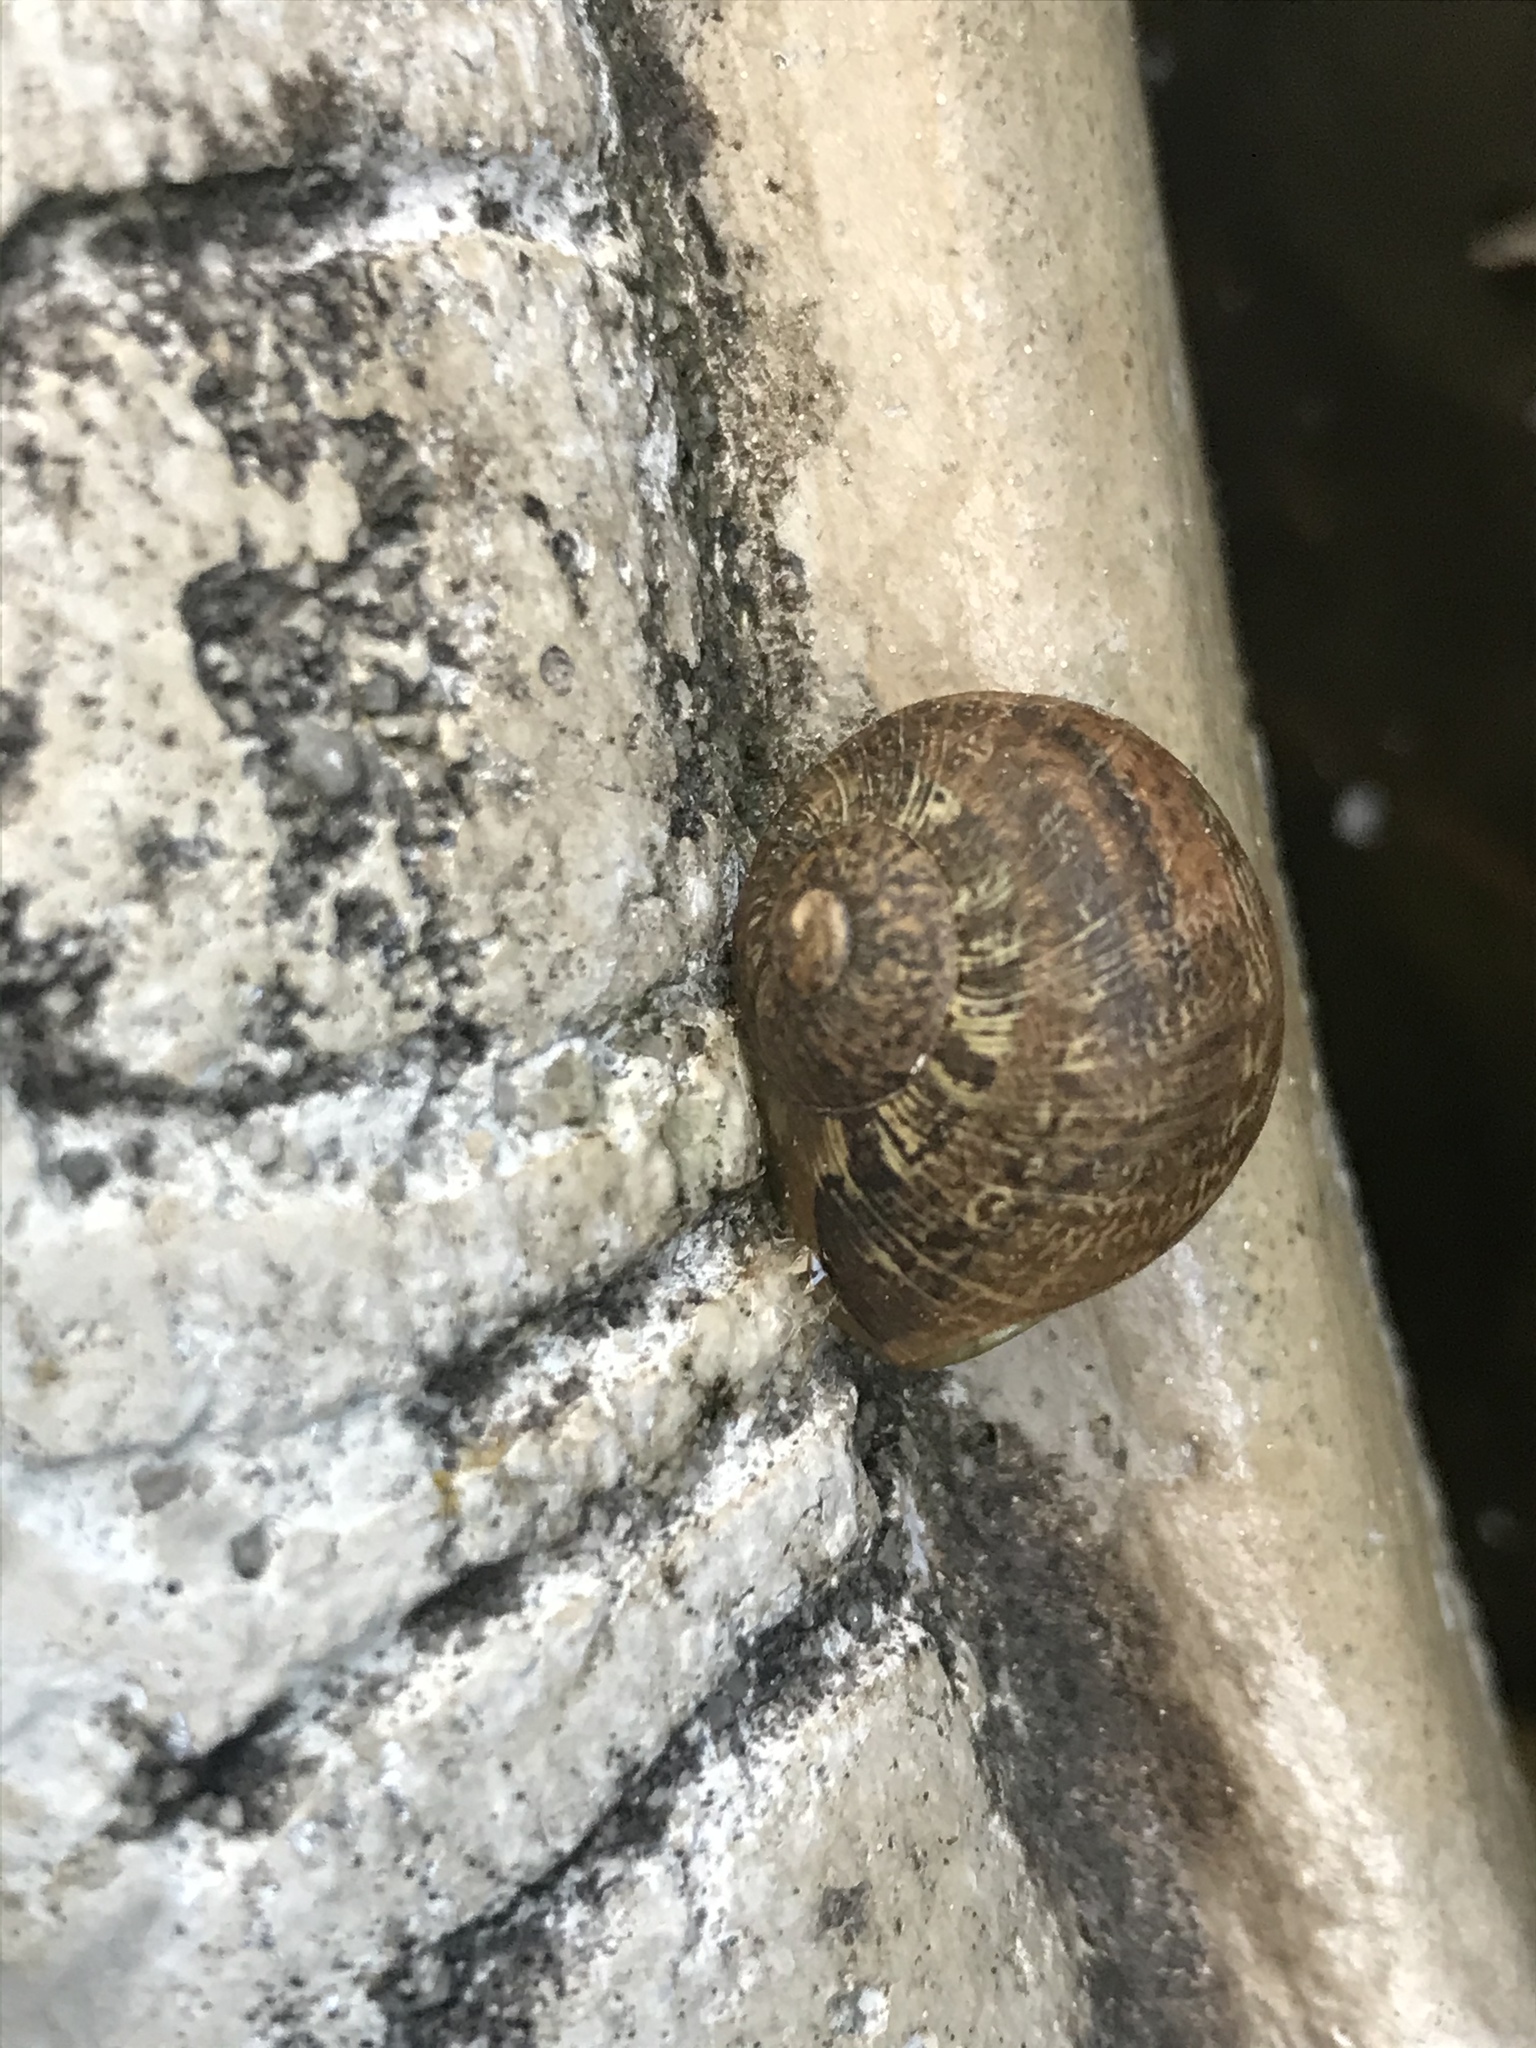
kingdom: Animalia
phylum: Mollusca
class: Gastropoda
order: Stylommatophora
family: Helicidae
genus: Cornu
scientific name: Cornu aspersum
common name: Brown garden snail
